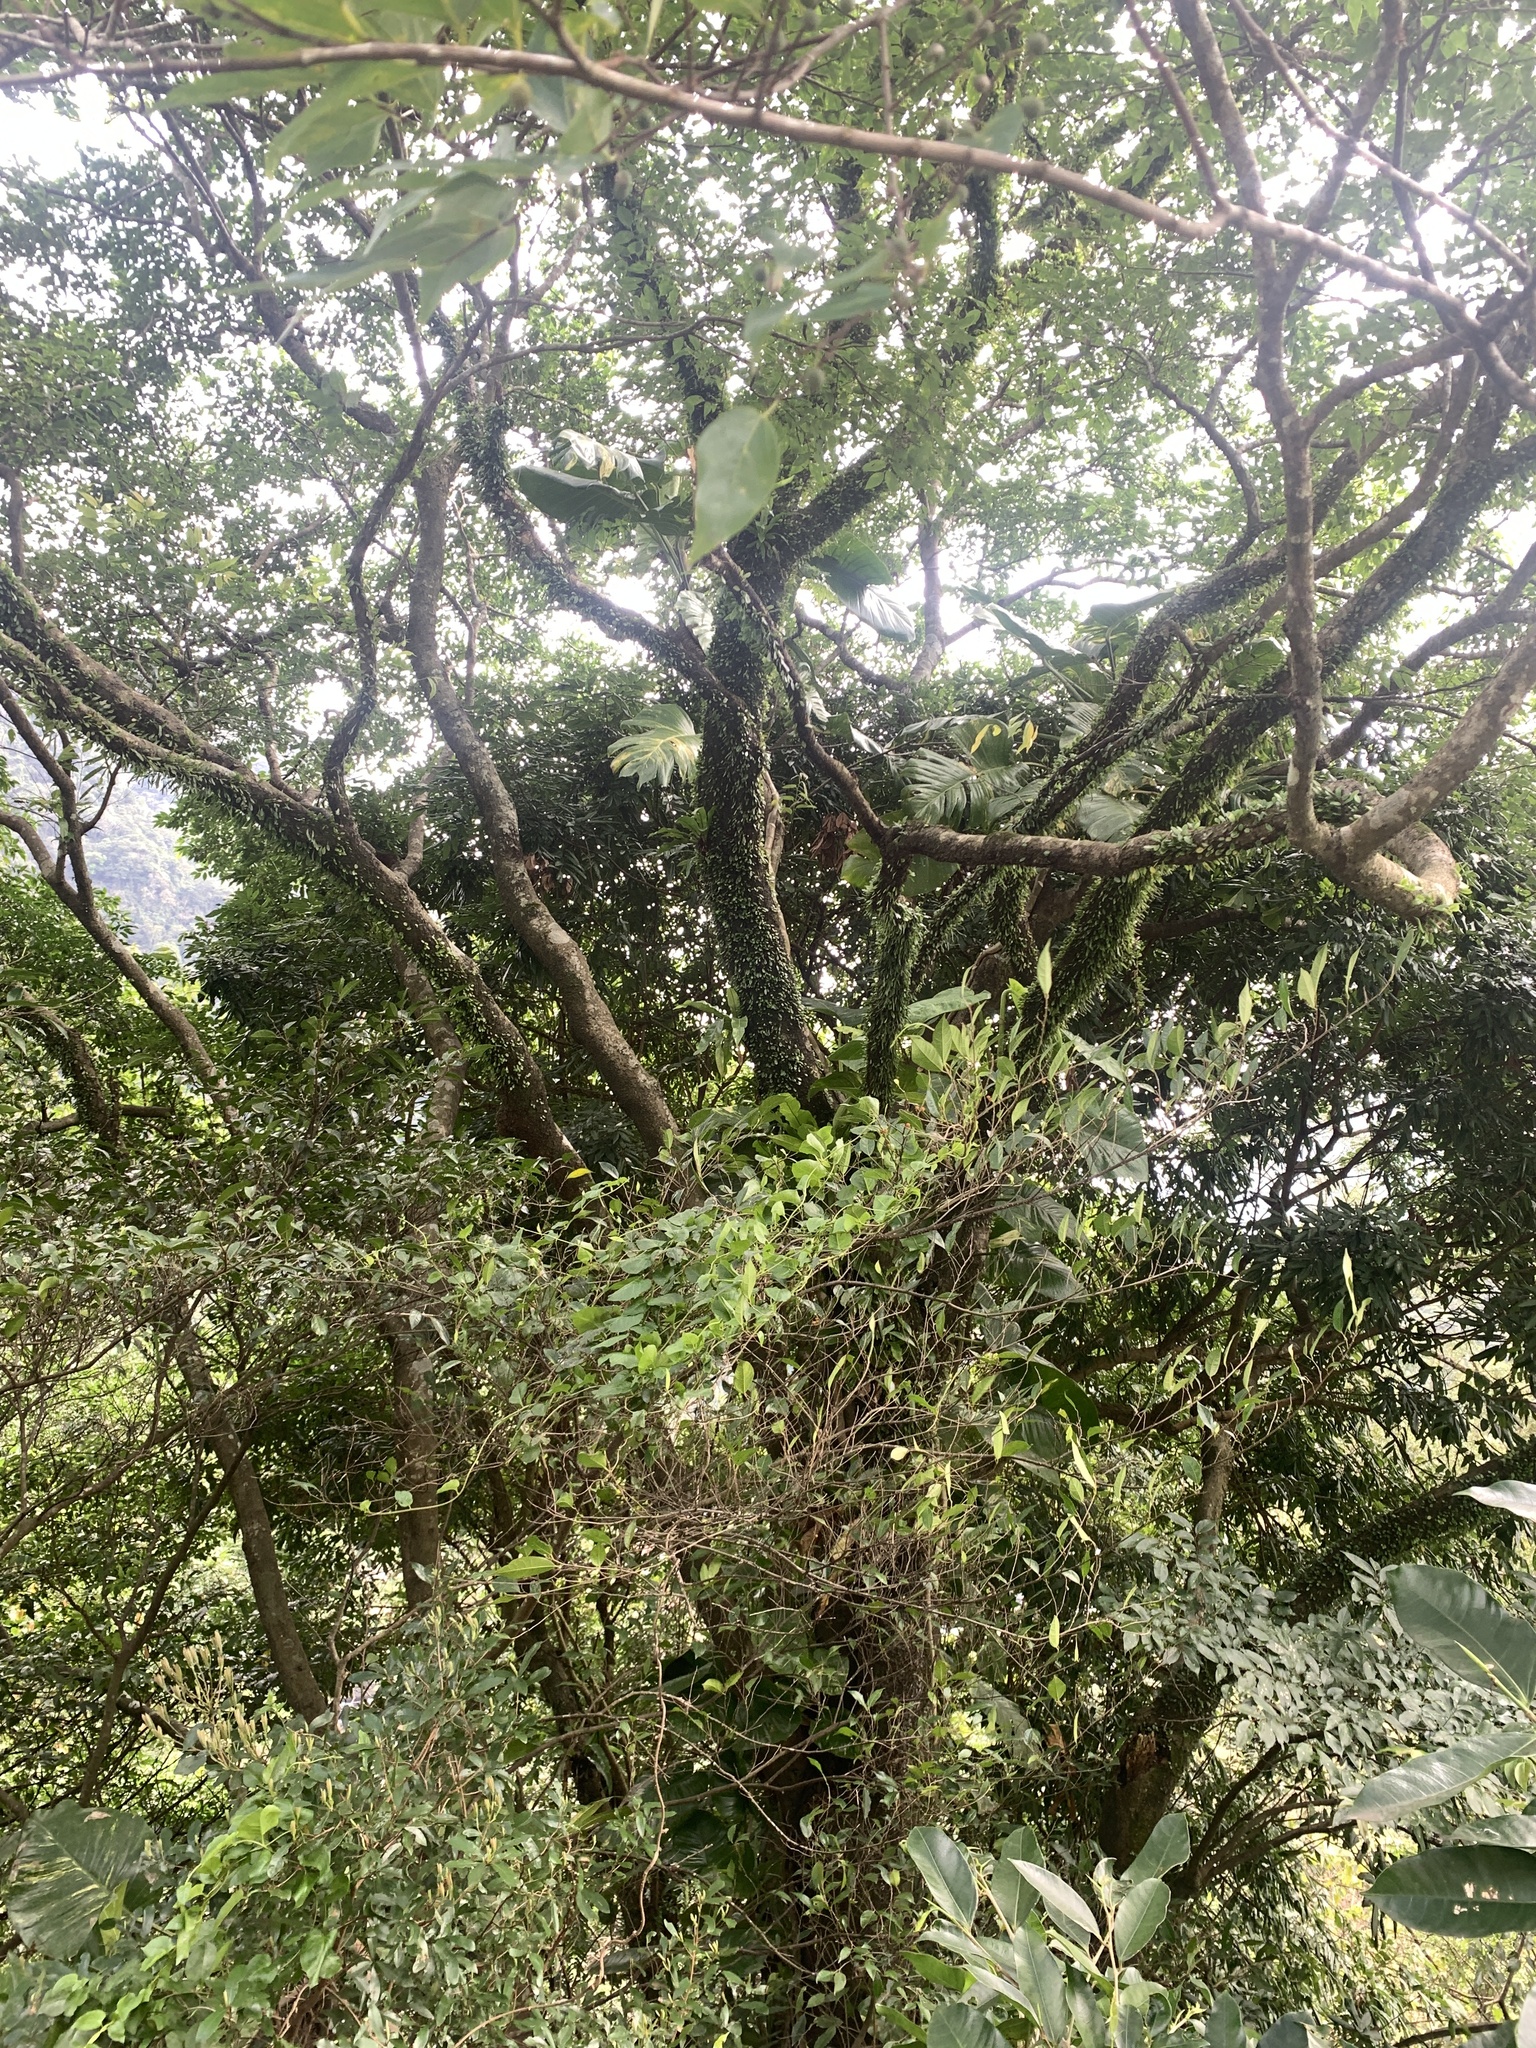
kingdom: Plantae
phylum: Tracheophyta
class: Magnoliopsida
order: Rosales
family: Cannabaceae
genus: Celtis
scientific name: Celtis tetrandra
